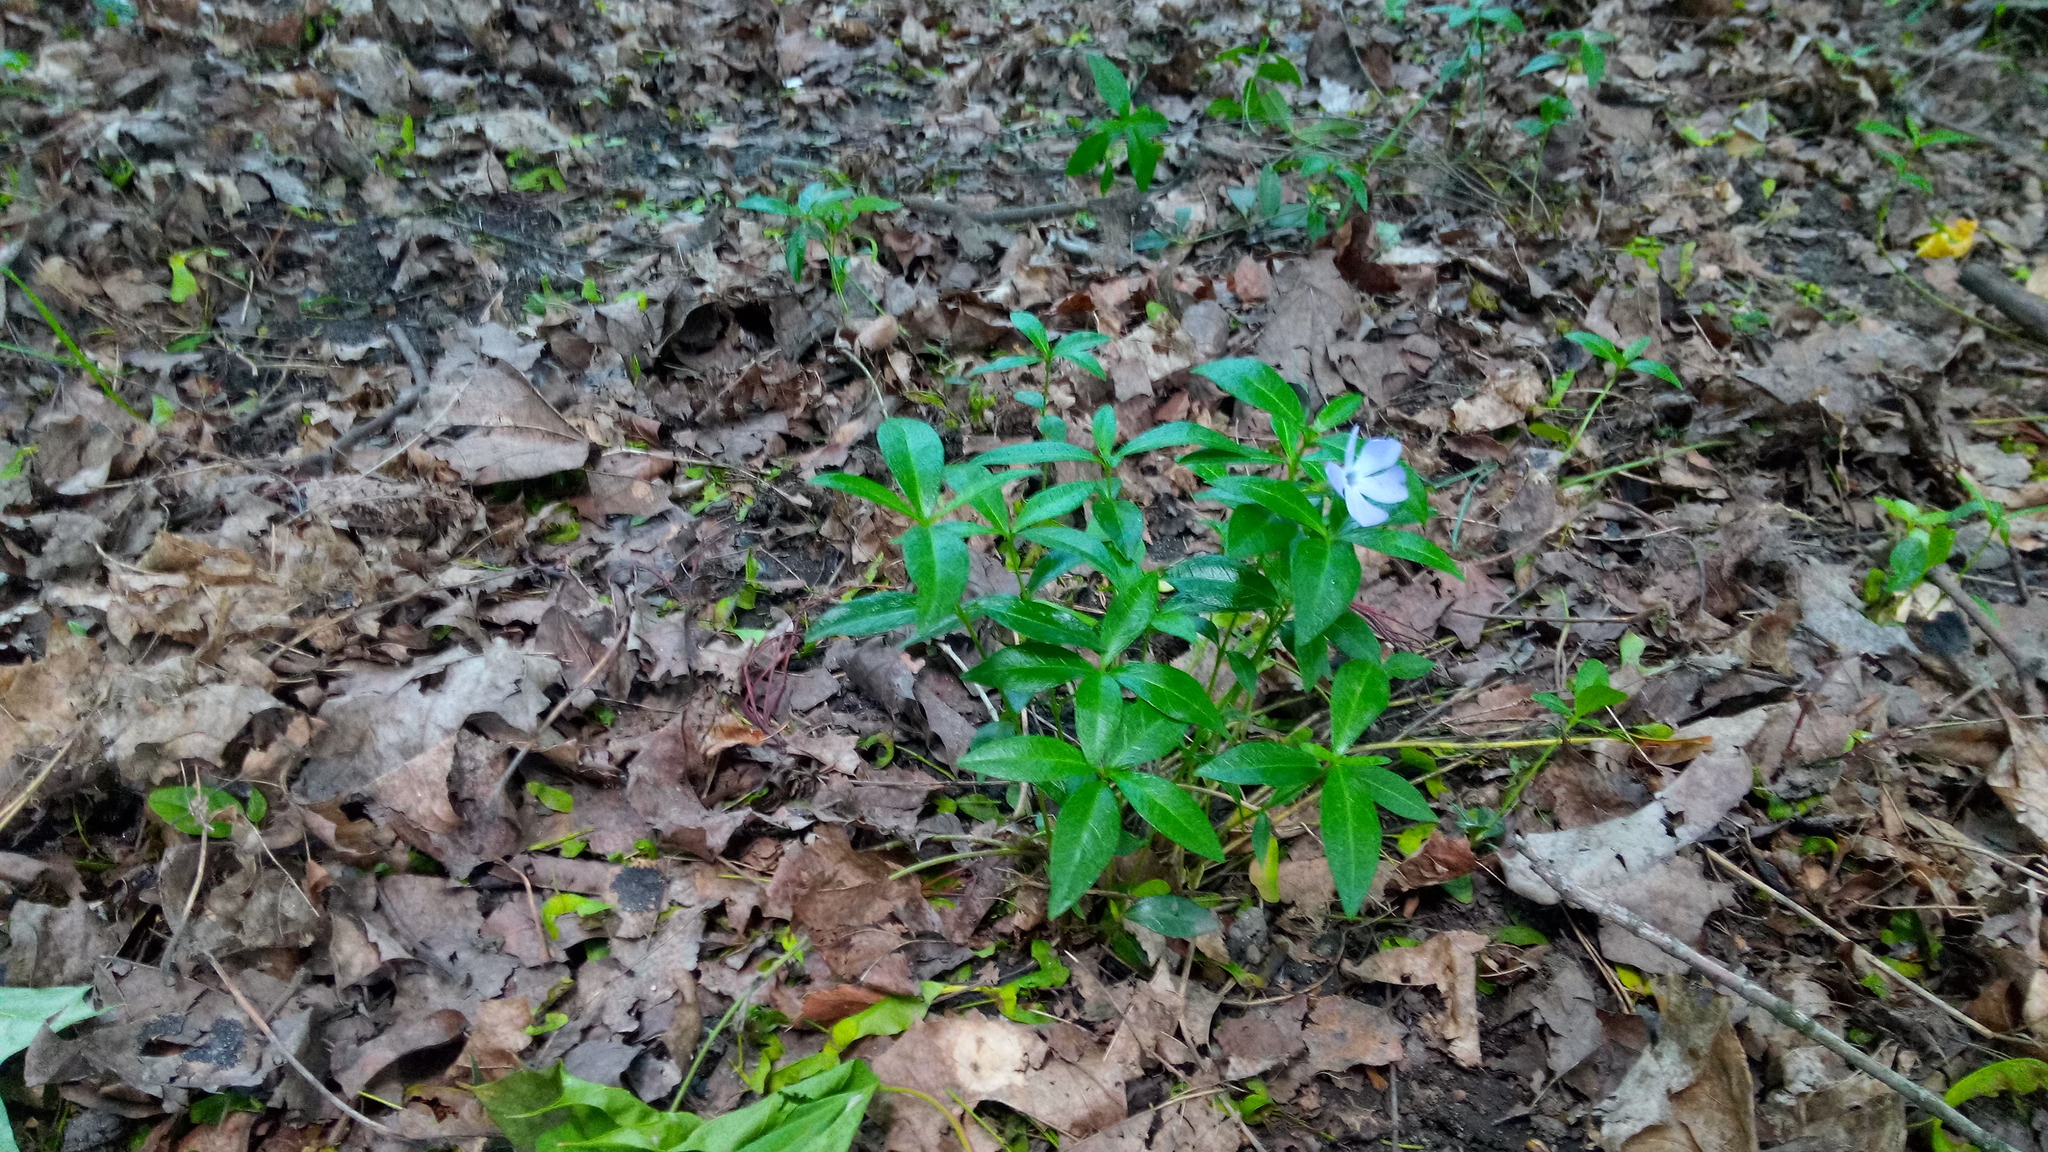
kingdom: Plantae
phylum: Tracheophyta
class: Magnoliopsida
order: Gentianales
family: Apocynaceae
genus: Vinca
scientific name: Vinca minor
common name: Lesser periwinkle
